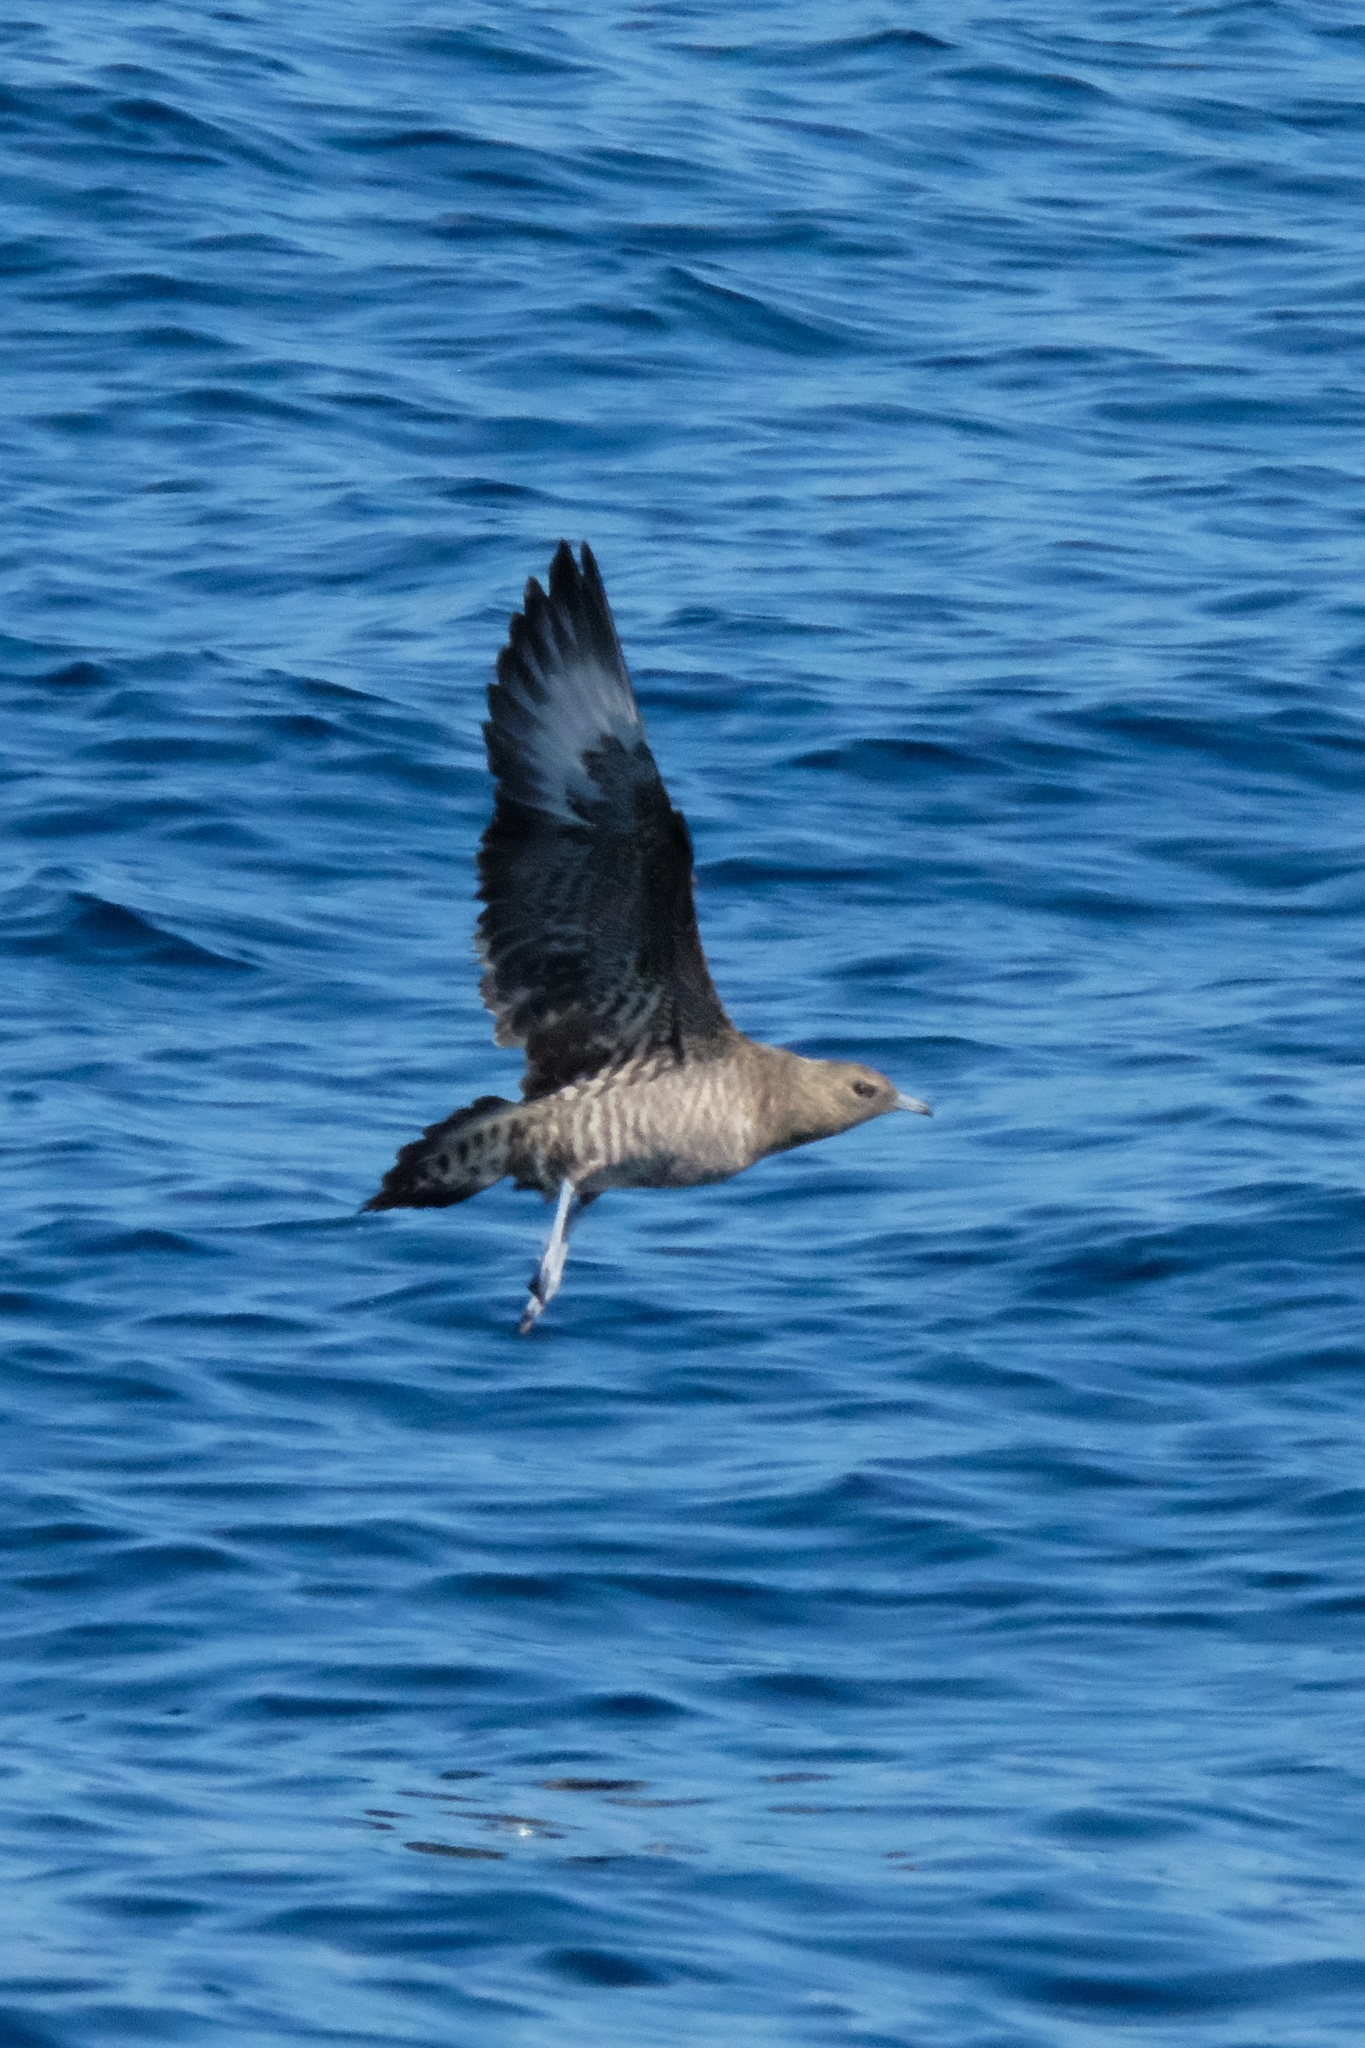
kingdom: Animalia
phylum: Chordata
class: Aves
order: Charadriiformes
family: Stercorariidae
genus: Stercorarius
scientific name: Stercorarius parasiticus
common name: Parasitic jaeger
